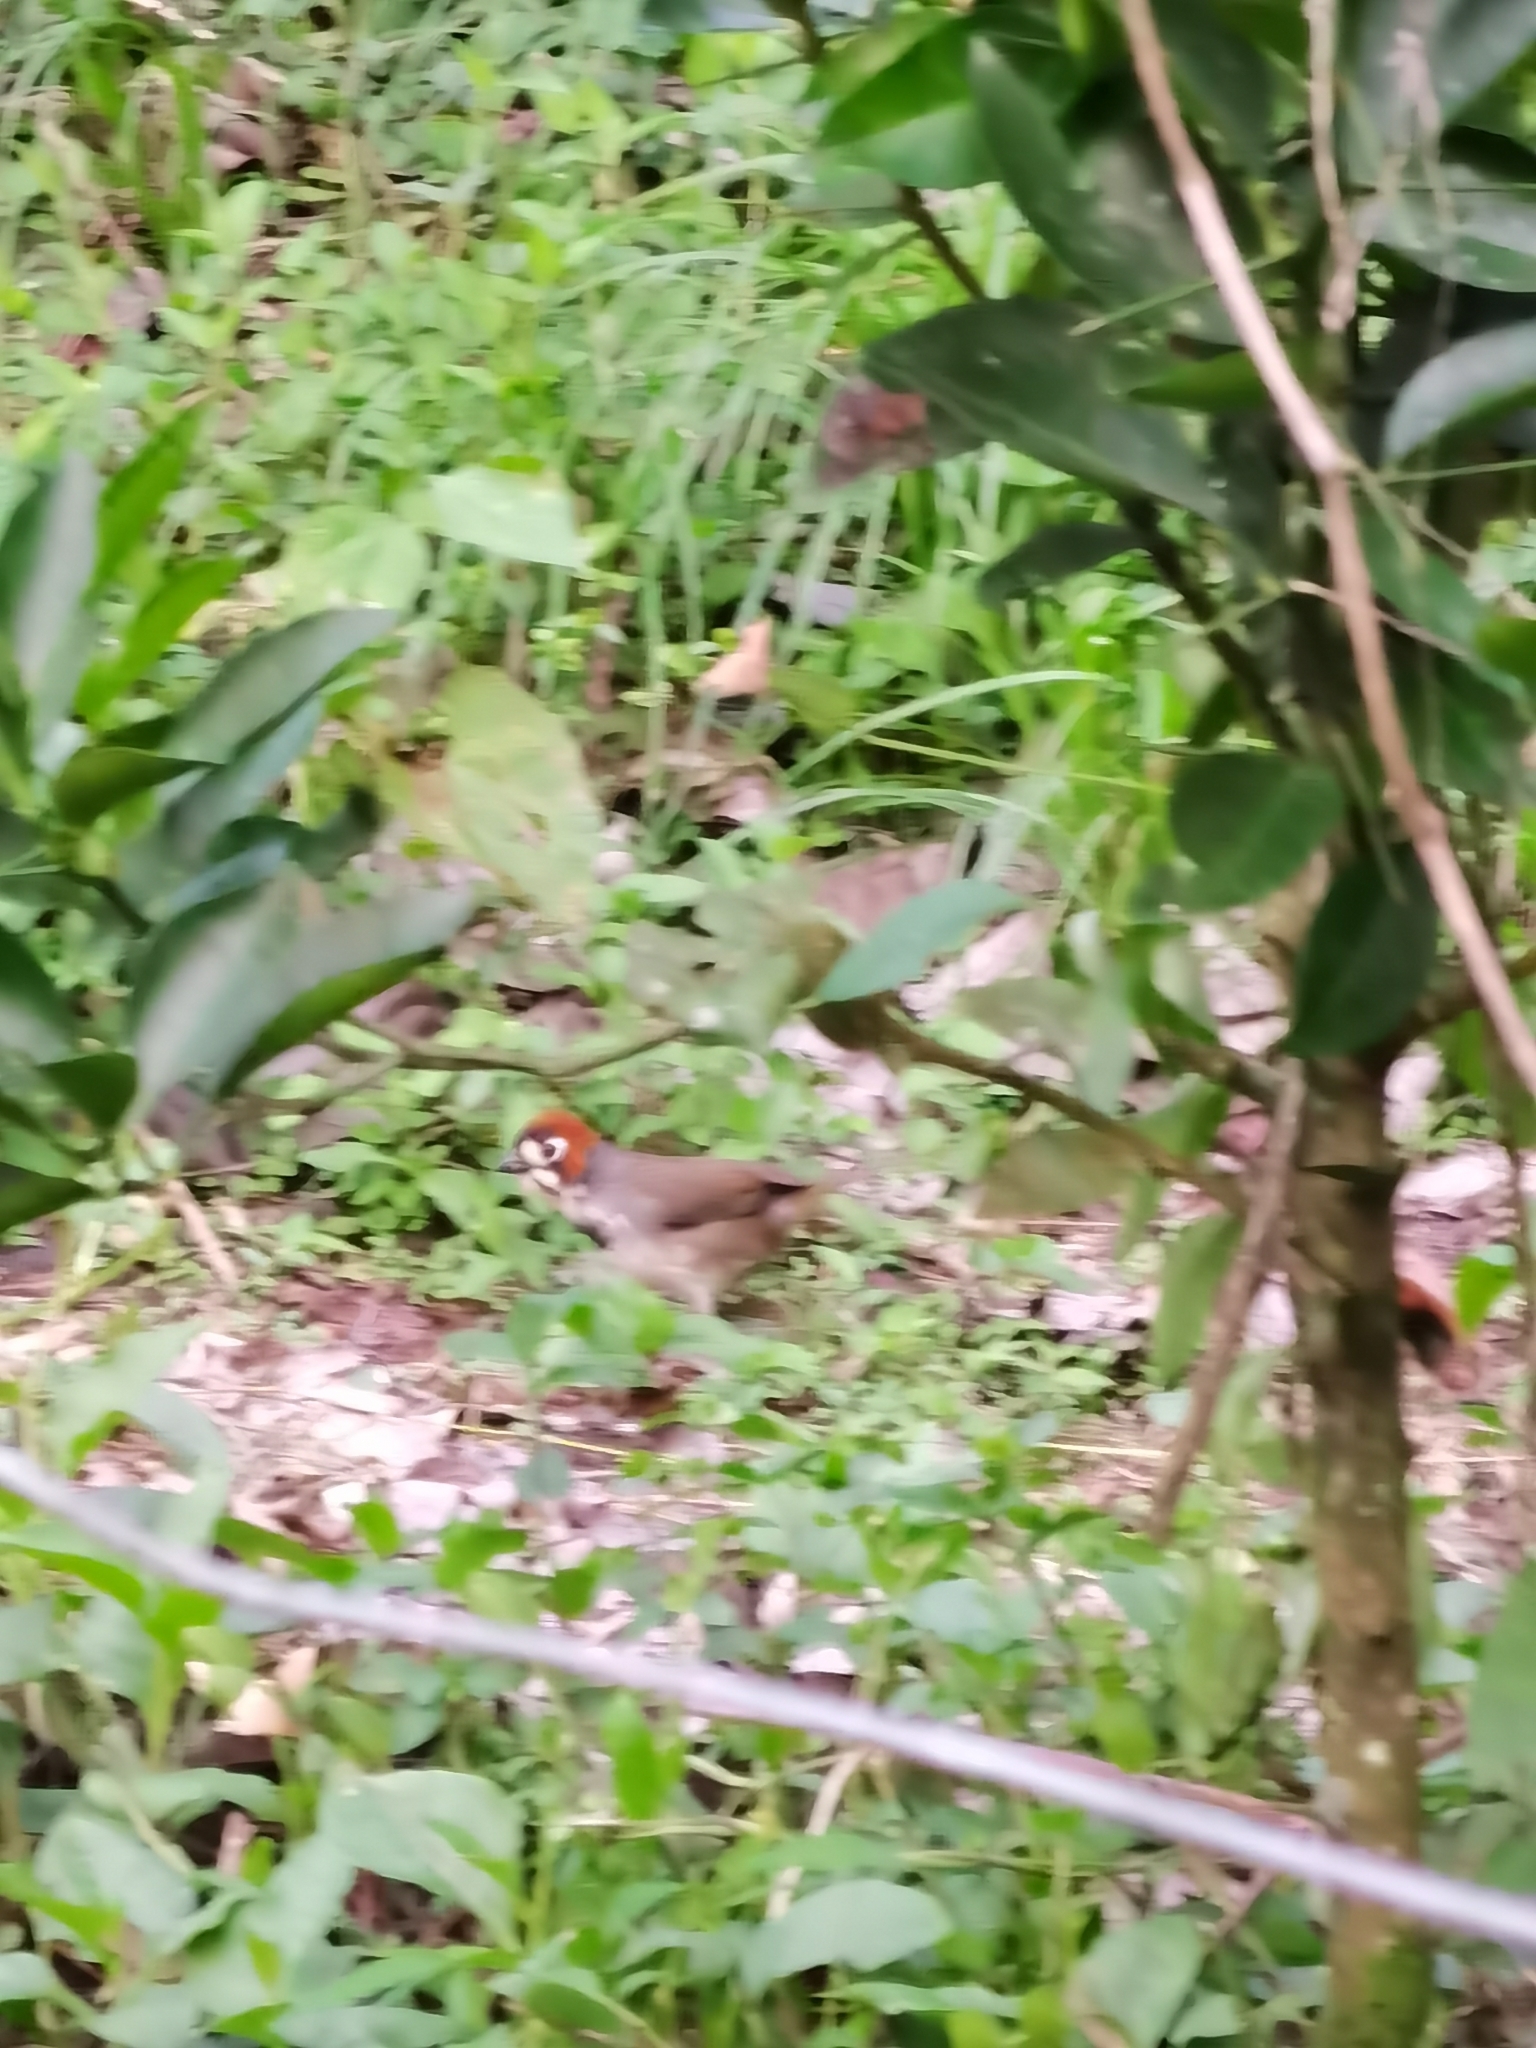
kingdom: Animalia
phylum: Chordata
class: Aves
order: Passeriformes
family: Passerellidae
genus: Melozone
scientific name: Melozone cabanisi
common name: Cabanis's ground sparrow
